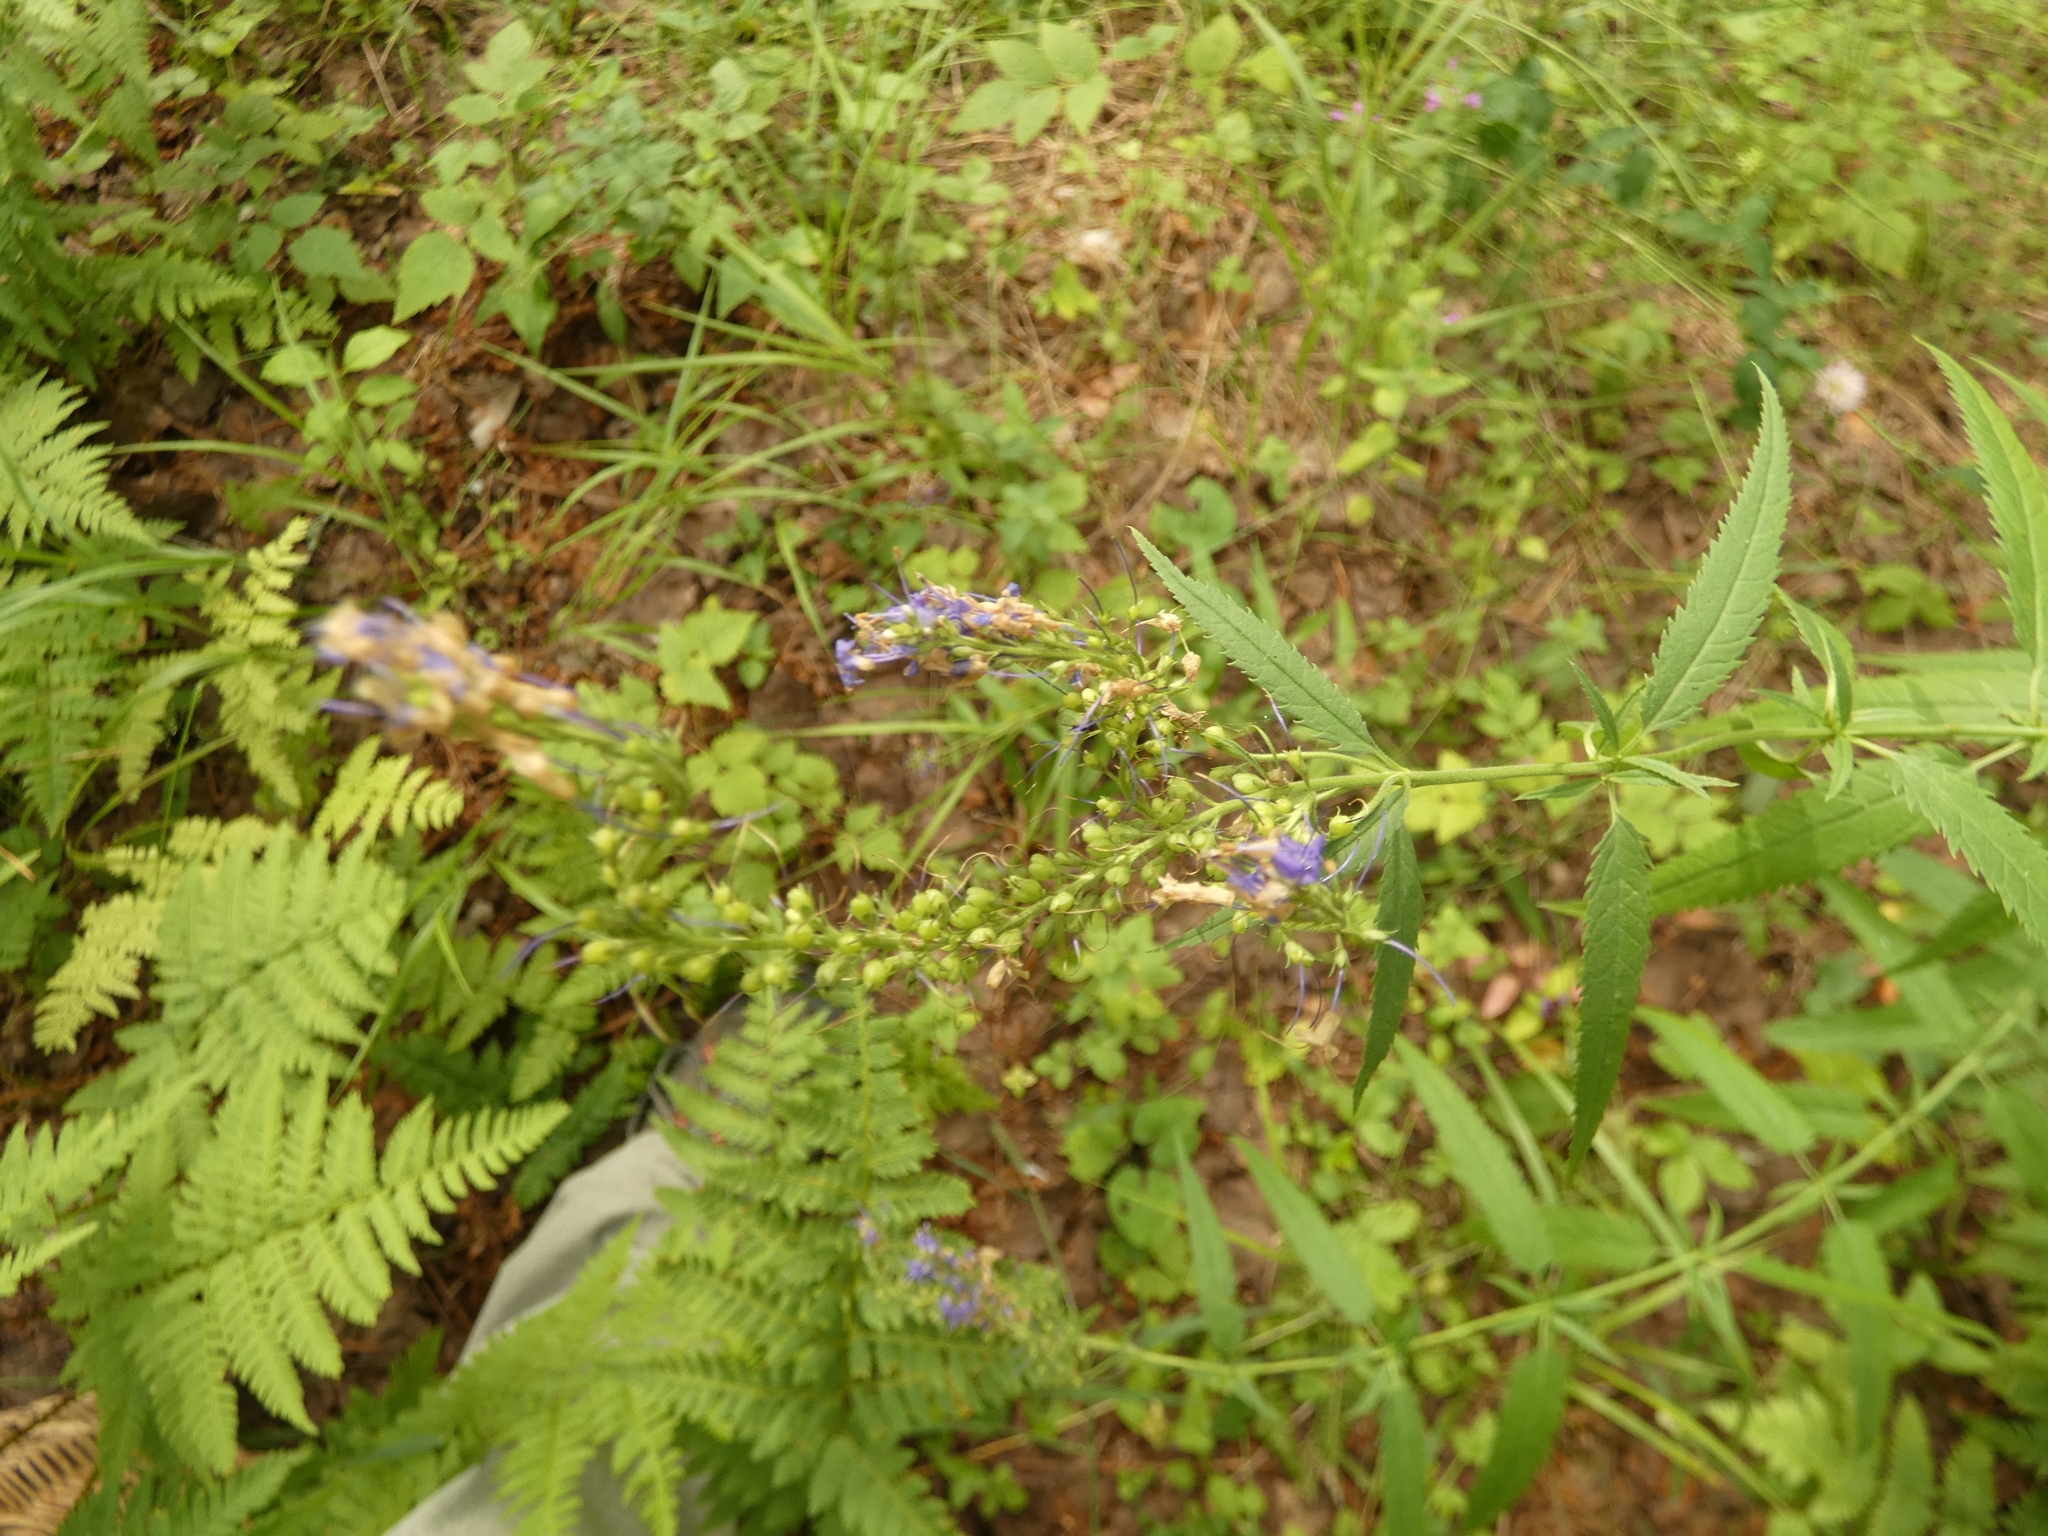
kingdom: Plantae
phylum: Tracheophyta
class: Magnoliopsida
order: Lamiales
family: Plantaginaceae
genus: Veronica
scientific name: Veronica longifolia
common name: Garden speedwell
